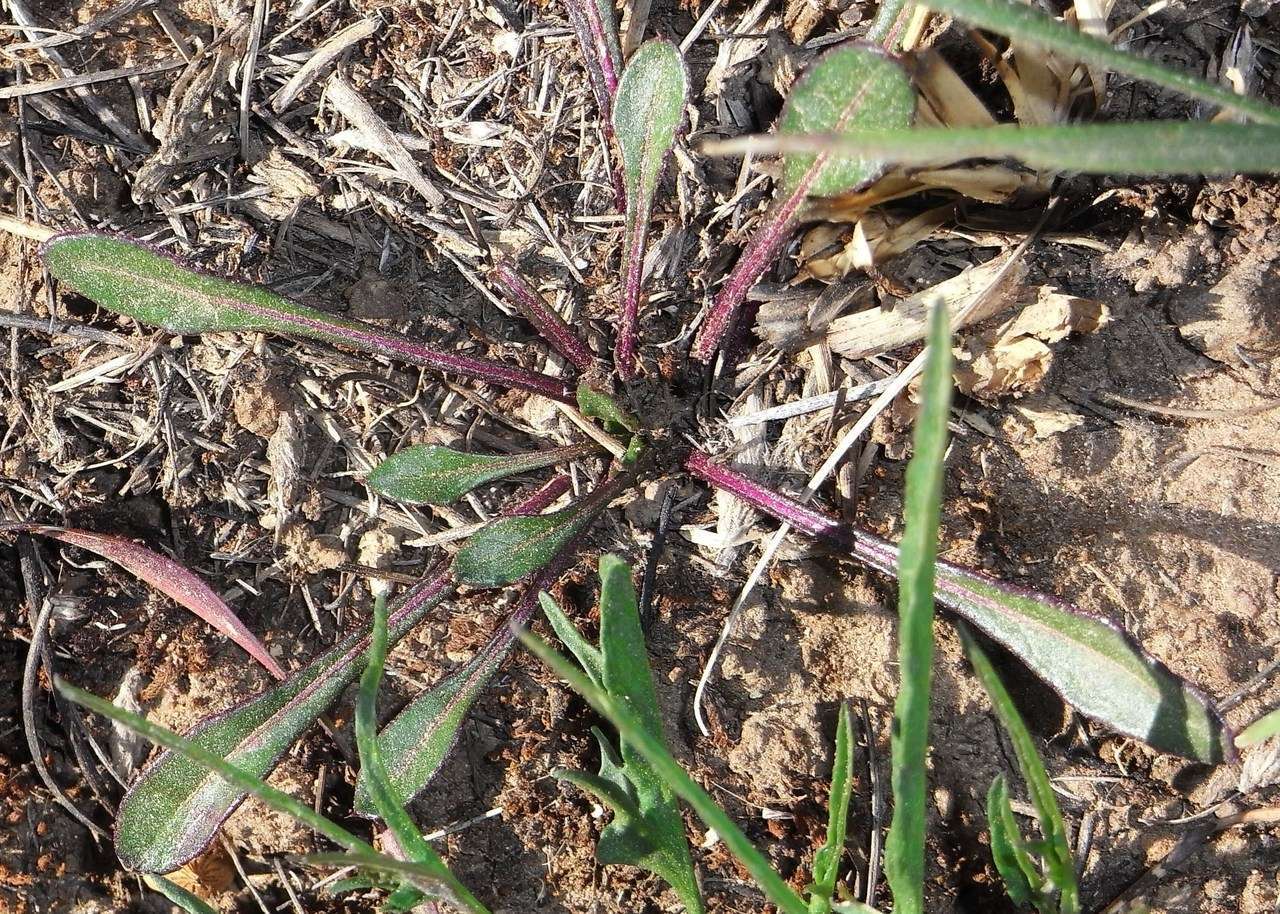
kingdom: Plantae
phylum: Tracheophyta
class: Magnoliopsida
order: Caryophyllales
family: Amaranthaceae
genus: Ptilotus
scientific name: Ptilotus spathulatus
